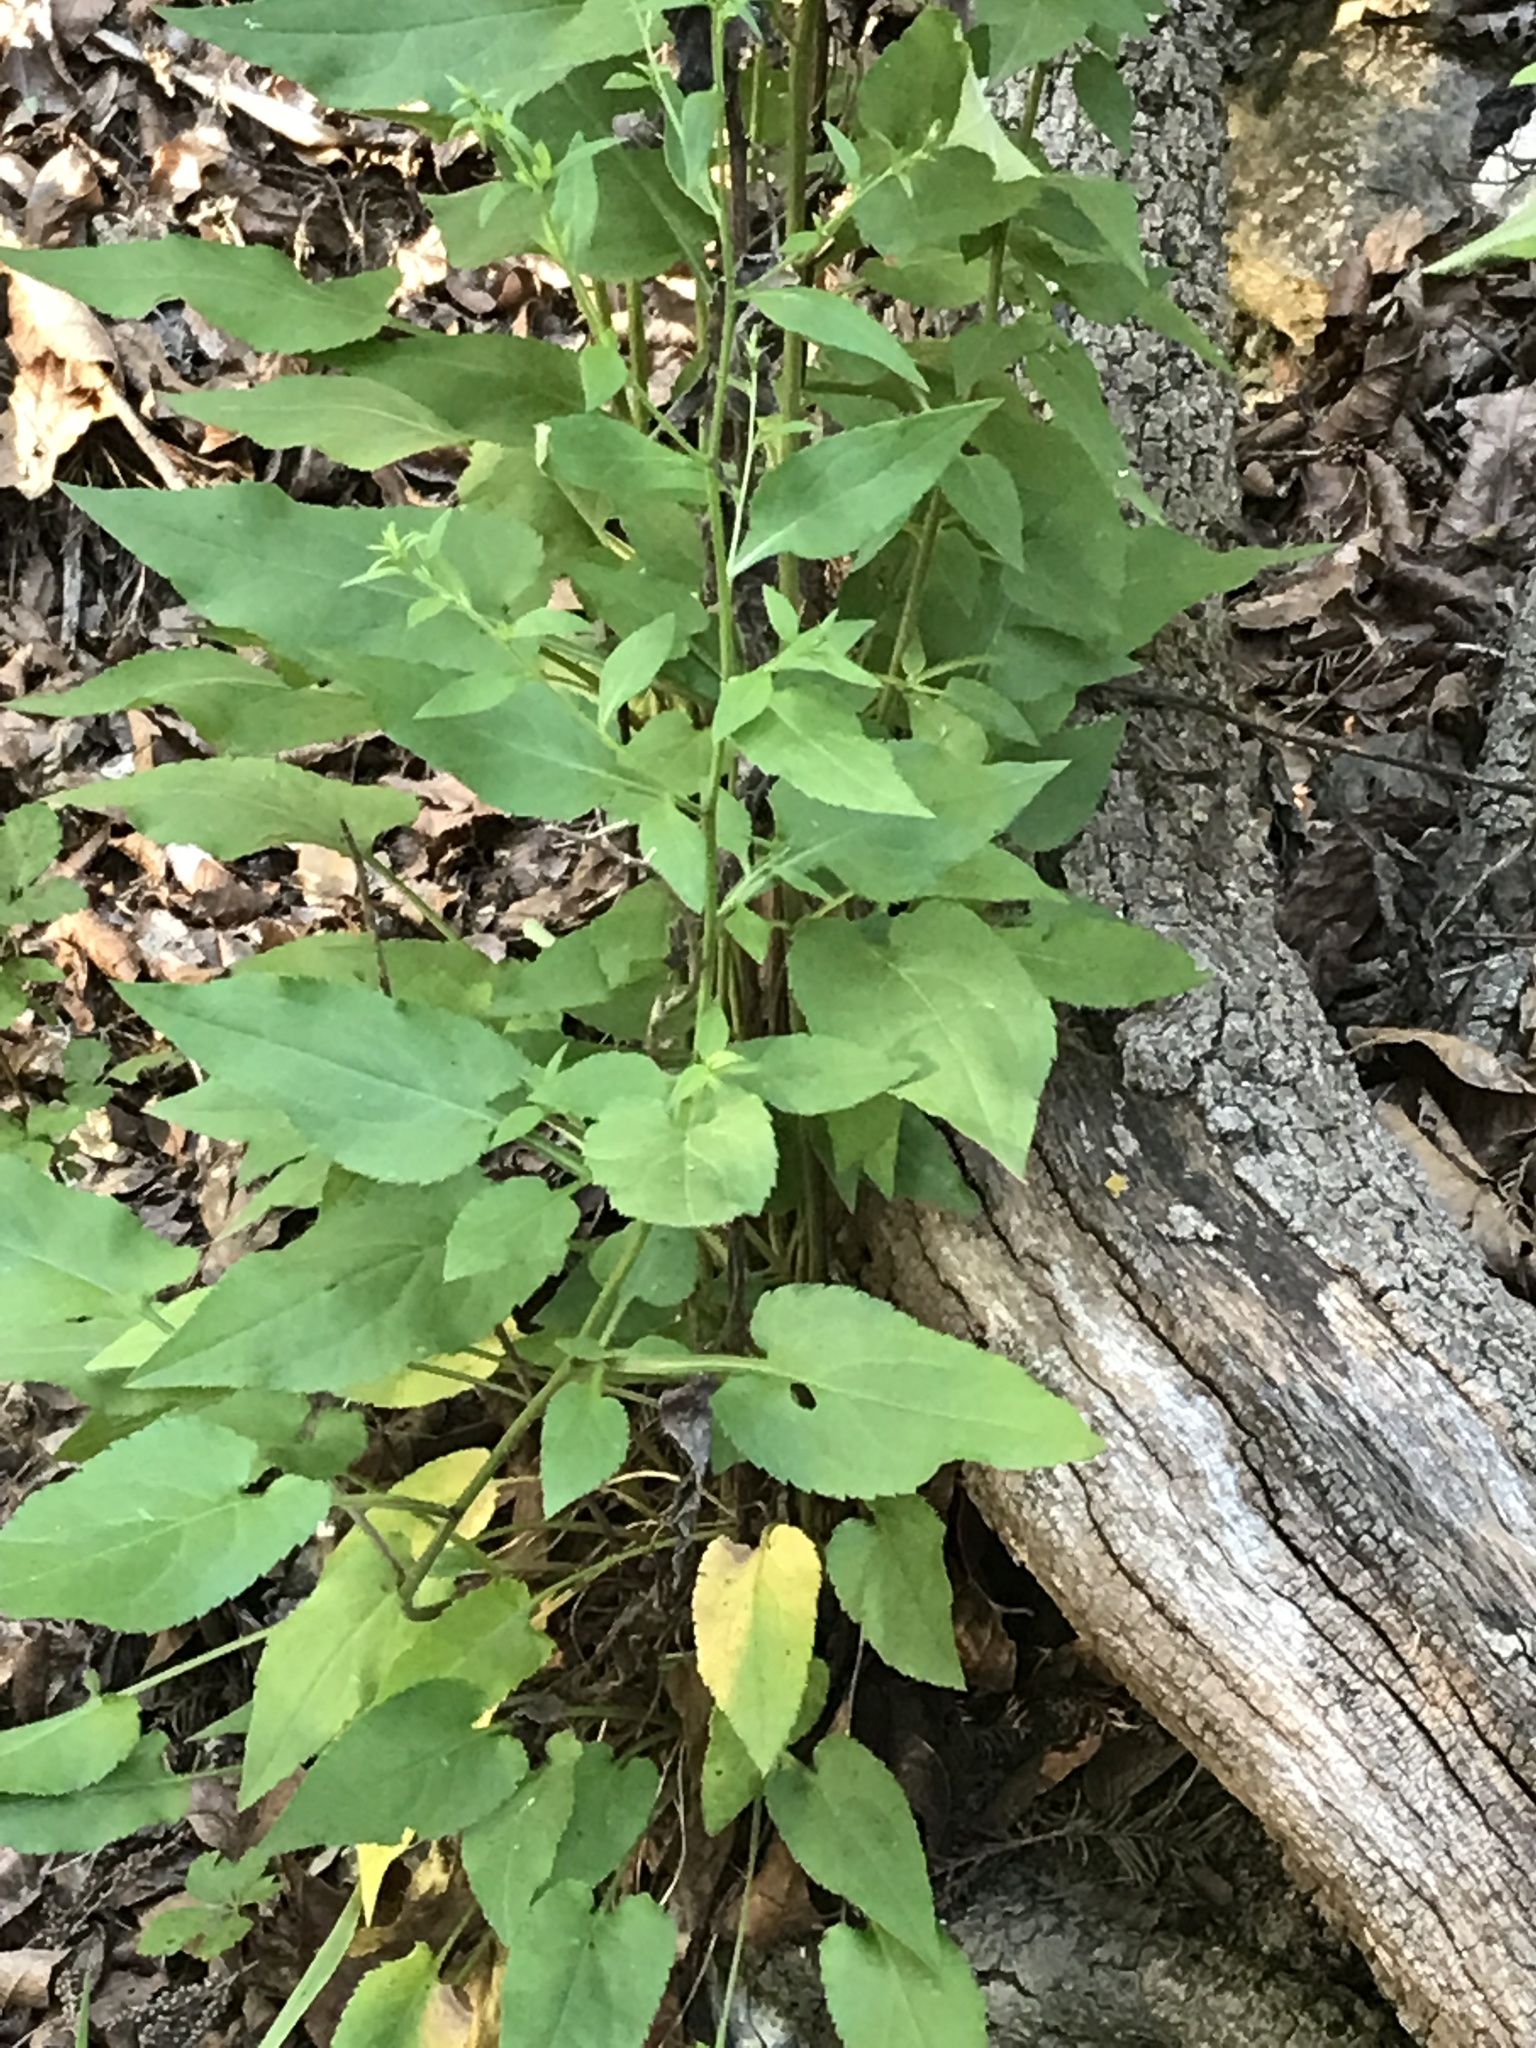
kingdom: Plantae
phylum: Tracheophyta
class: Magnoliopsida
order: Asterales
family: Asteraceae
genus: Symphyotrichum
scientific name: Symphyotrichum drummondii
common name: Drummond's aster
